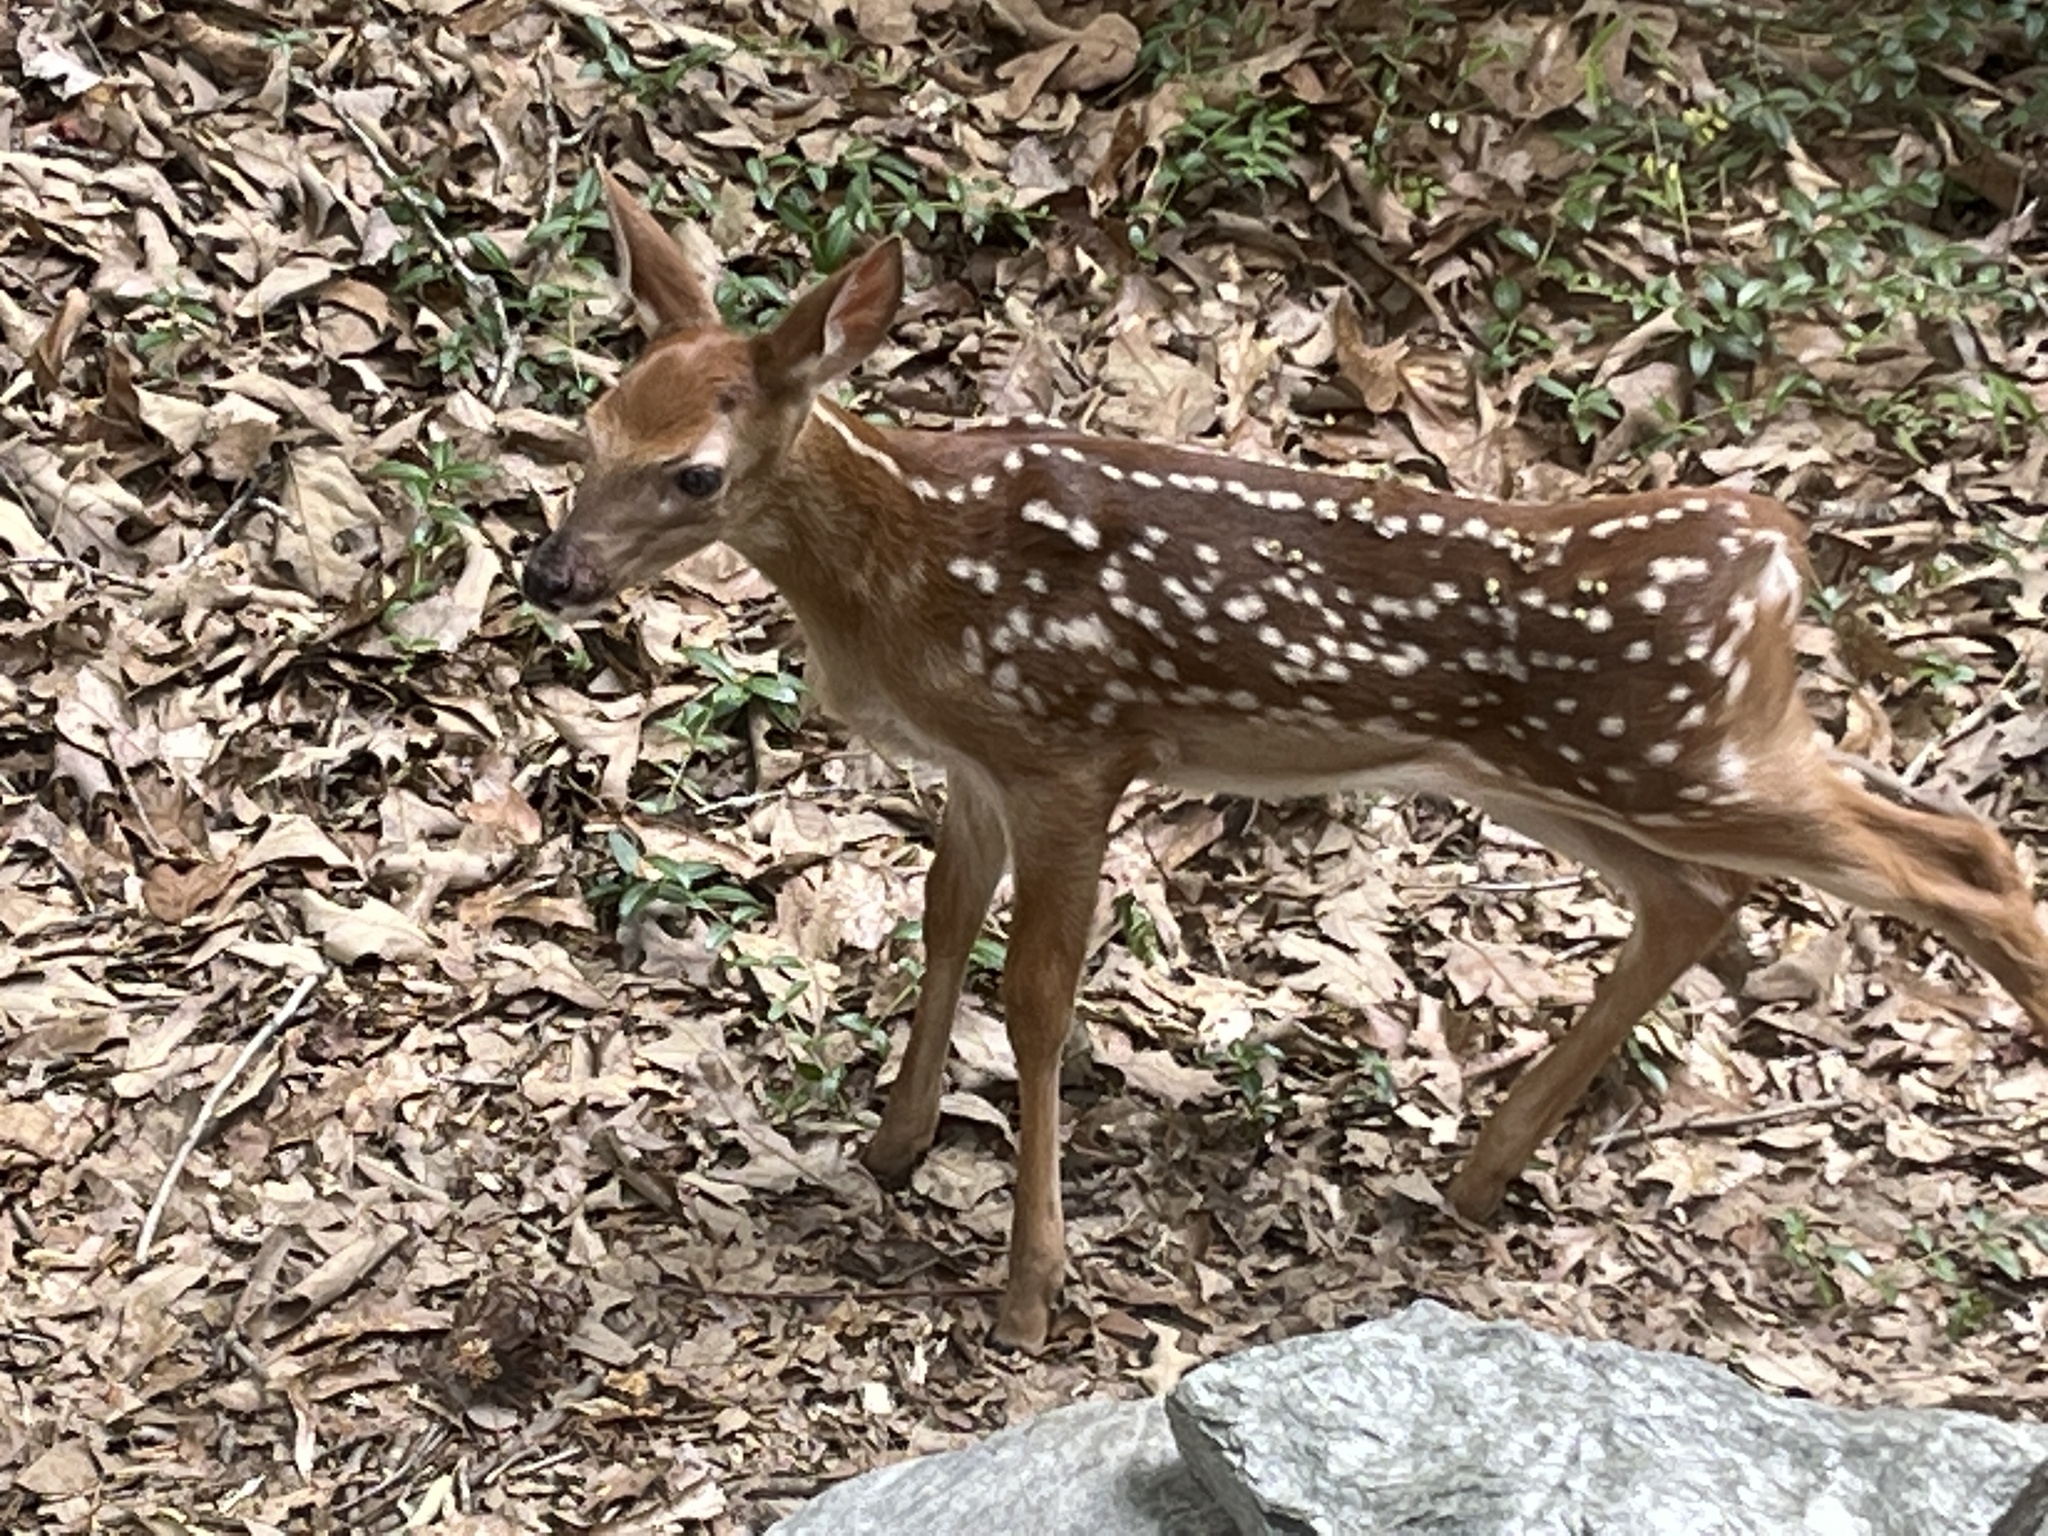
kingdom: Animalia
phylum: Chordata
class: Mammalia
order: Artiodactyla
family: Cervidae
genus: Odocoileus
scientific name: Odocoileus virginianus
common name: White-tailed deer
